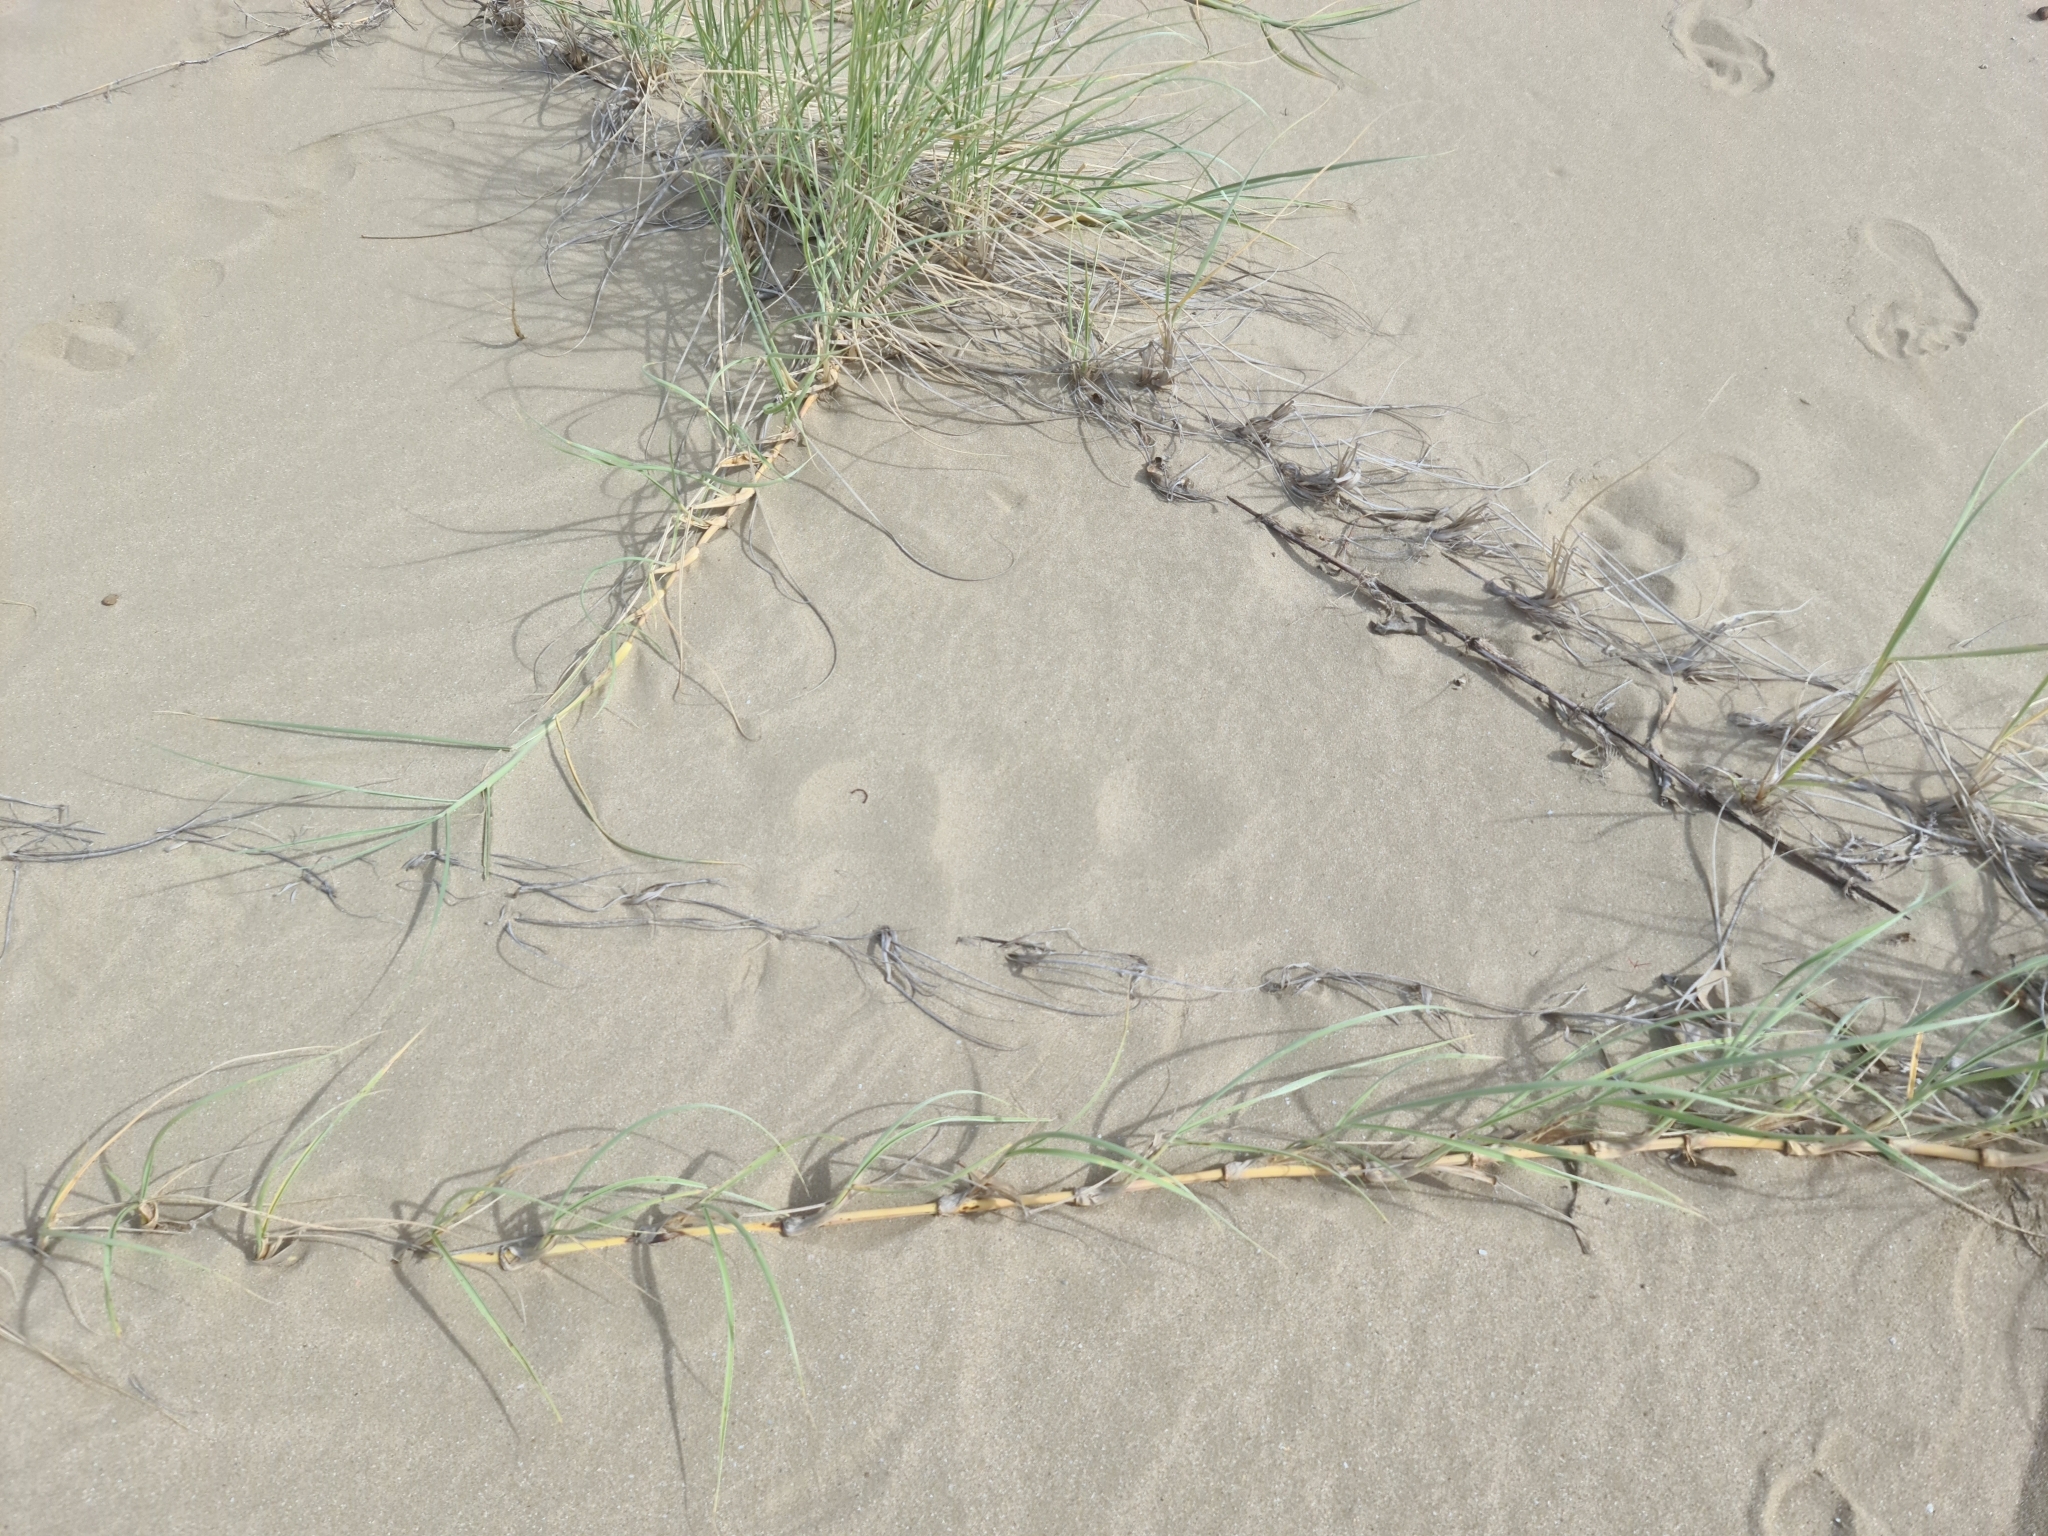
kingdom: Plantae
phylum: Tracheophyta
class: Liliopsida
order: Poales
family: Poaceae
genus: Spinifex
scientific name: Spinifex sericeus
